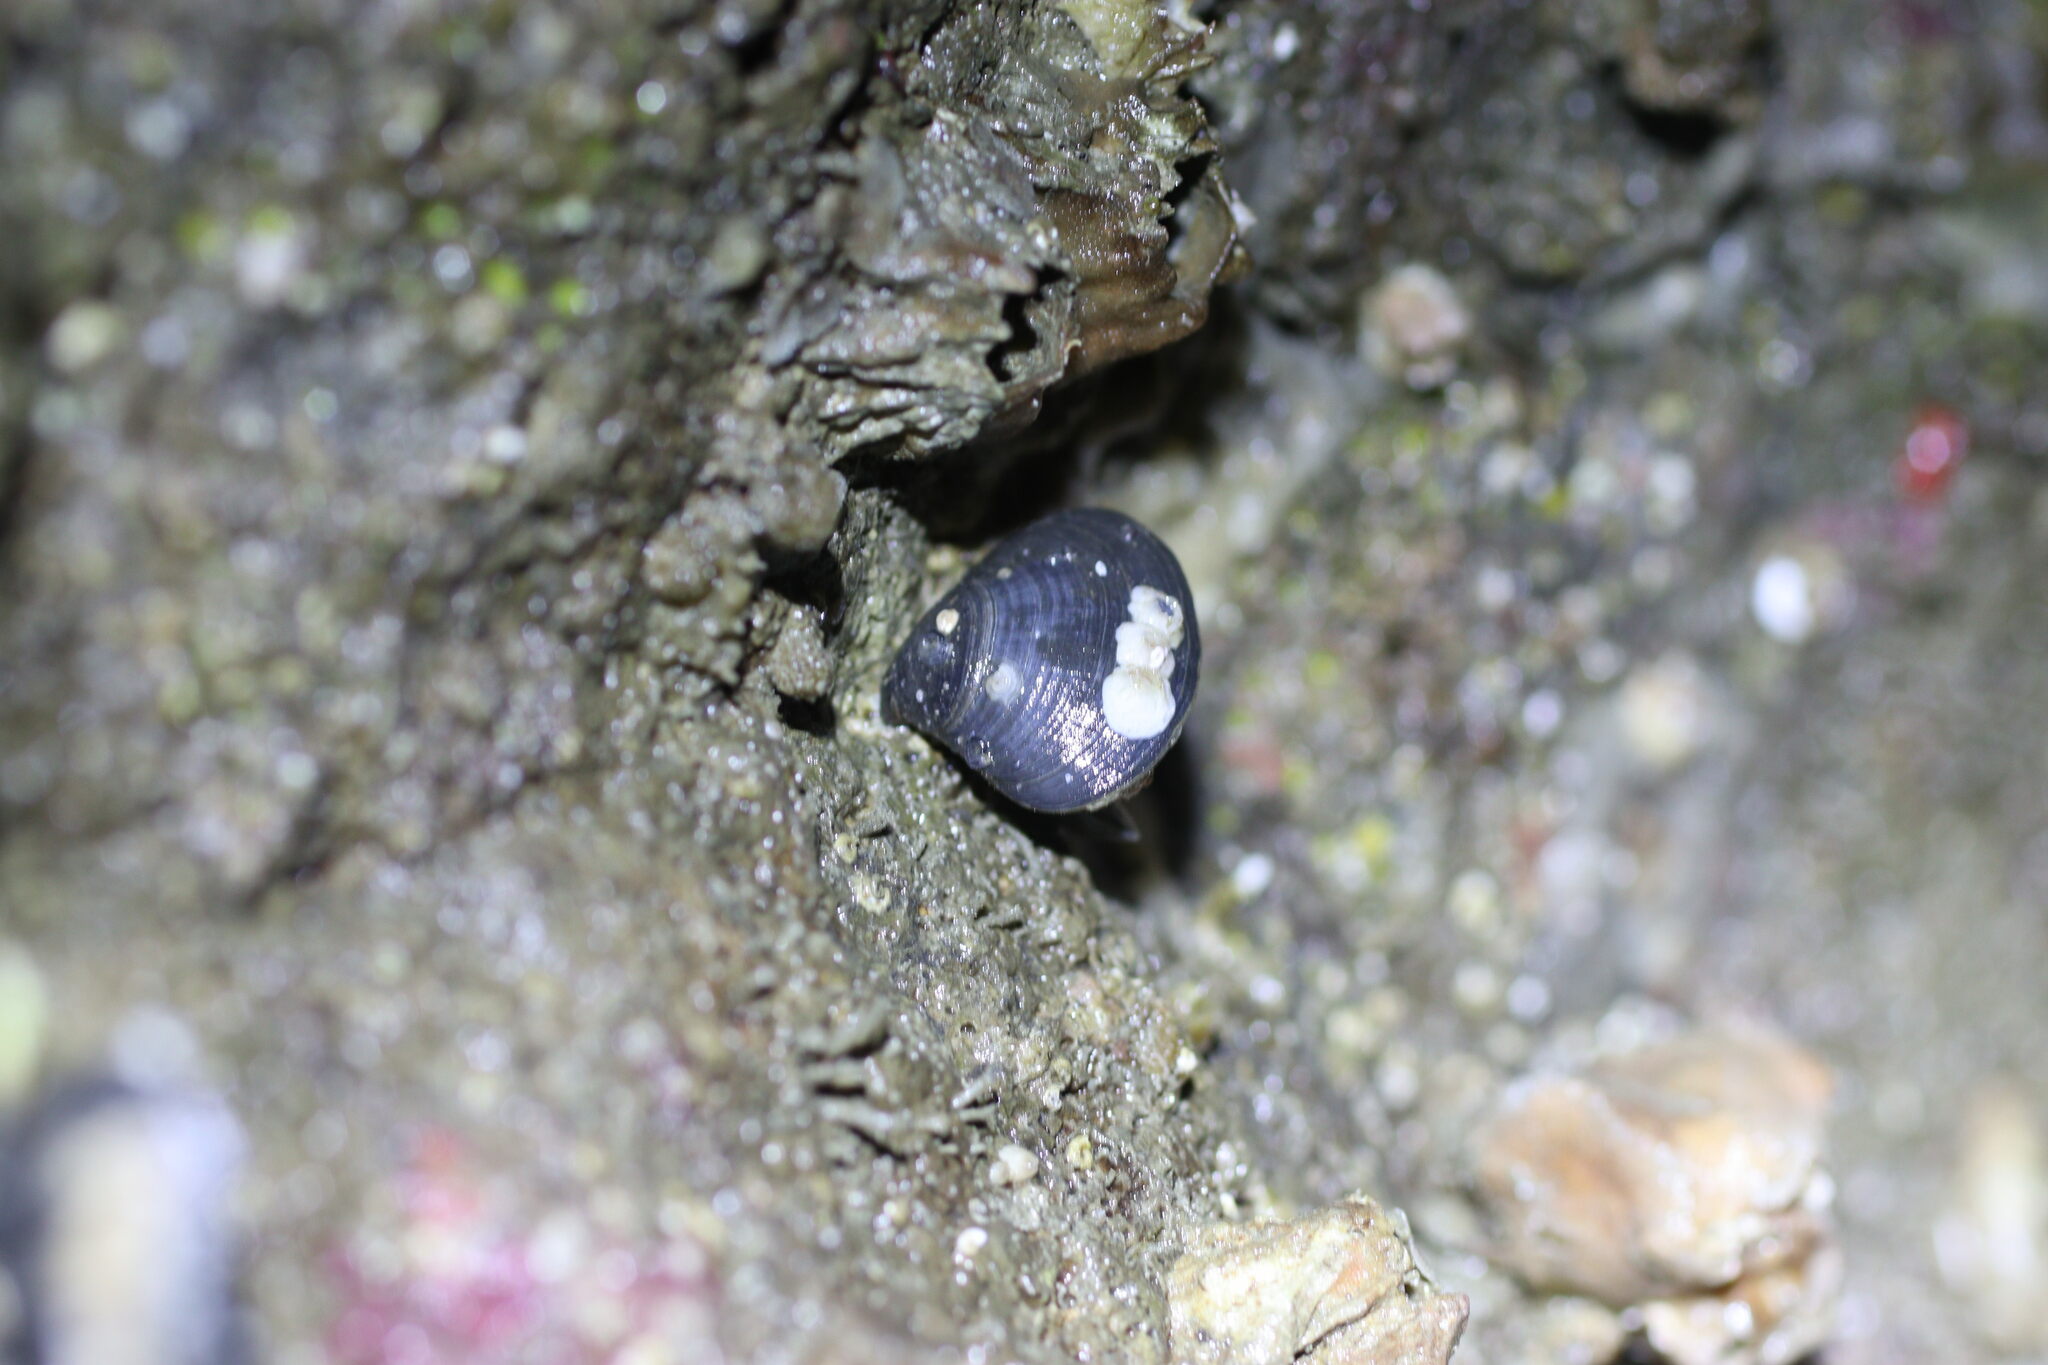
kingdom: Animalia
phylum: Brachiopoda
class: Rhynchonellata
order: Rhynchonellida
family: Hemithirididae
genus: Hemithiris
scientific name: Hemithiris psittacea
